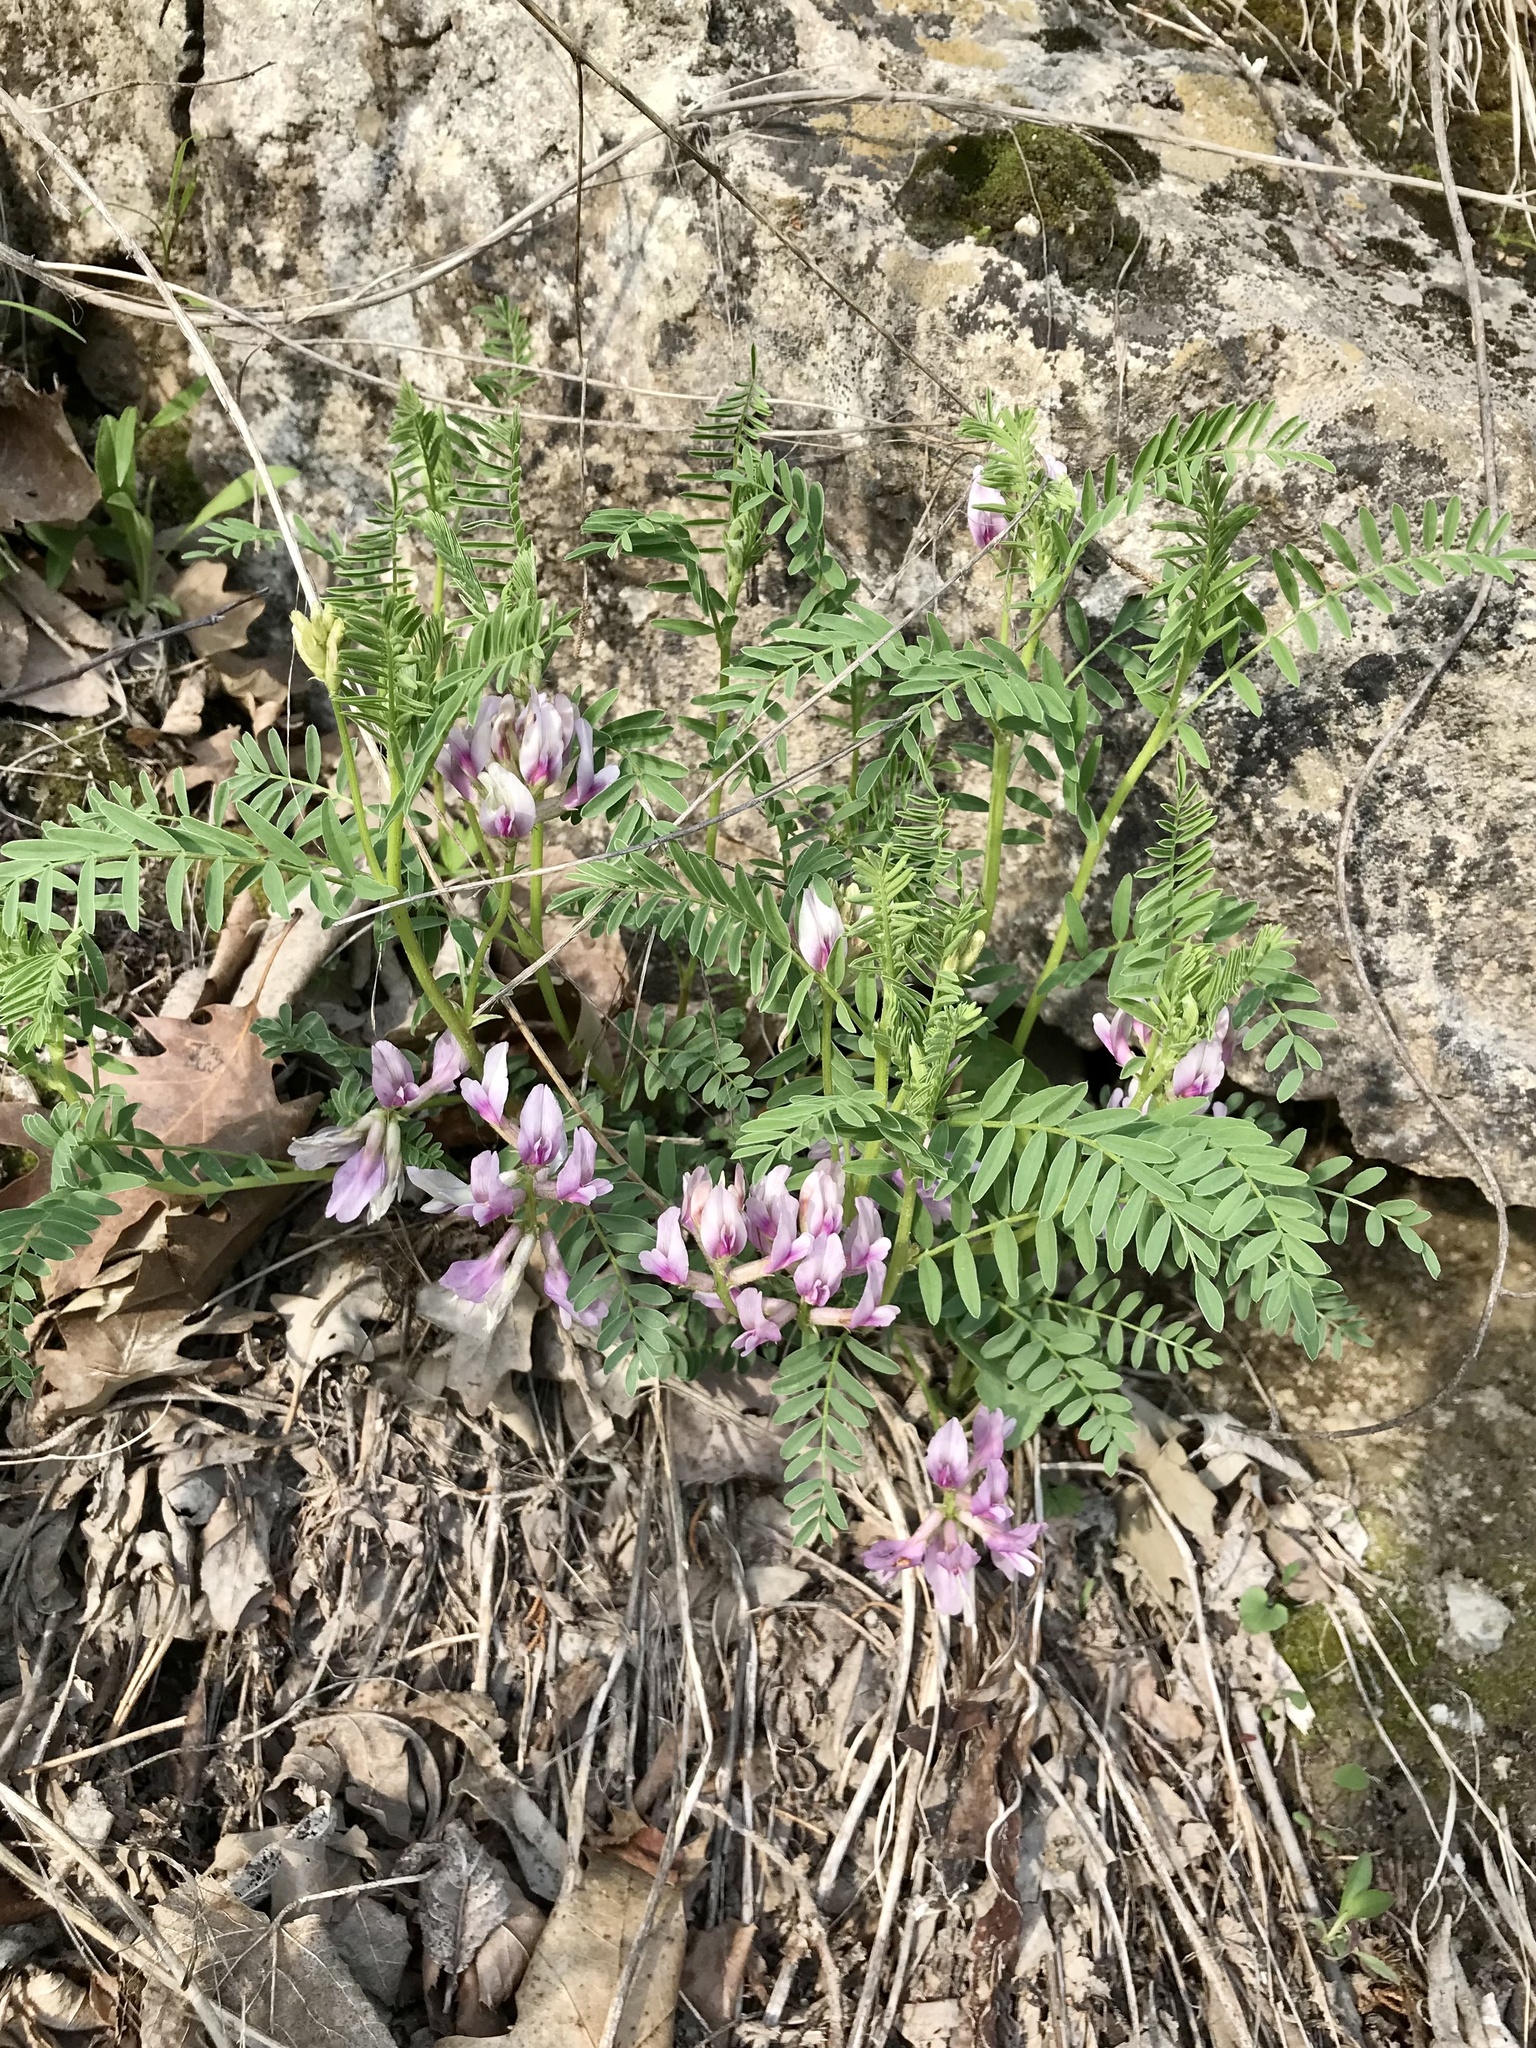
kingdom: Plantae
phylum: Tracheophyta
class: Magnoliopsida
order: Fabales
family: Fabaceae
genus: Astragalus
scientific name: Astragalus crassicarpus
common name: Ground-plum milk-vetch
